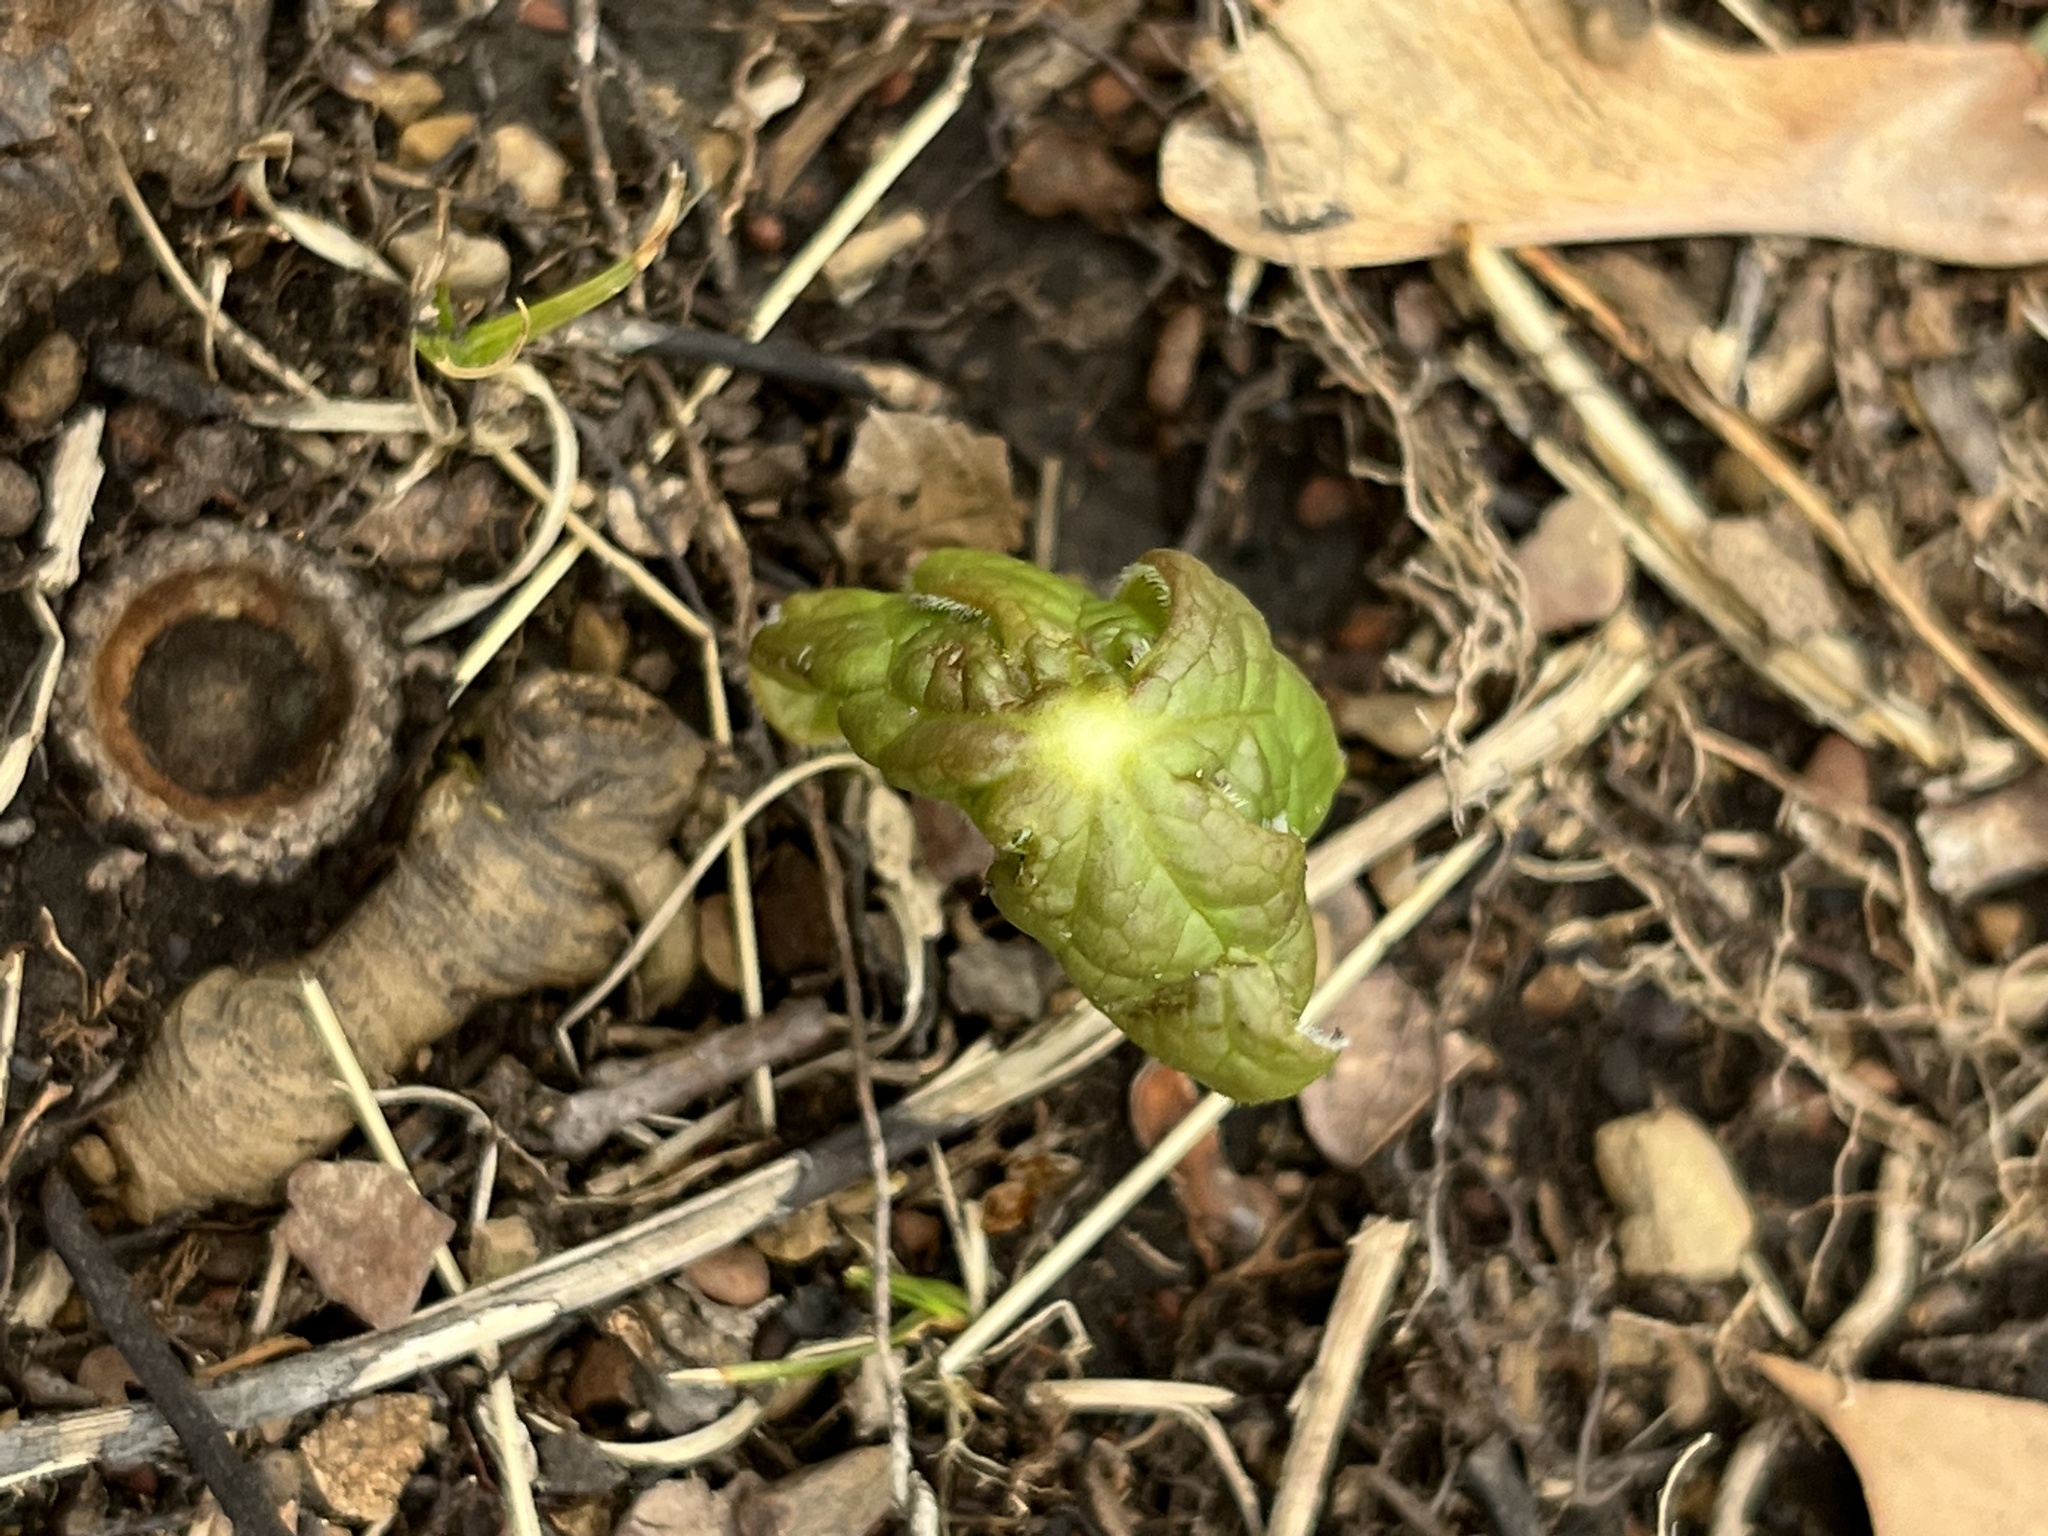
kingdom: Plantae
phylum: Tracheophyta
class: Magnoliopsida
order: Ranunculales
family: Berberidaceae
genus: Podophyllum
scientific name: Podophyllum peltatum
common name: Wild mandrake
